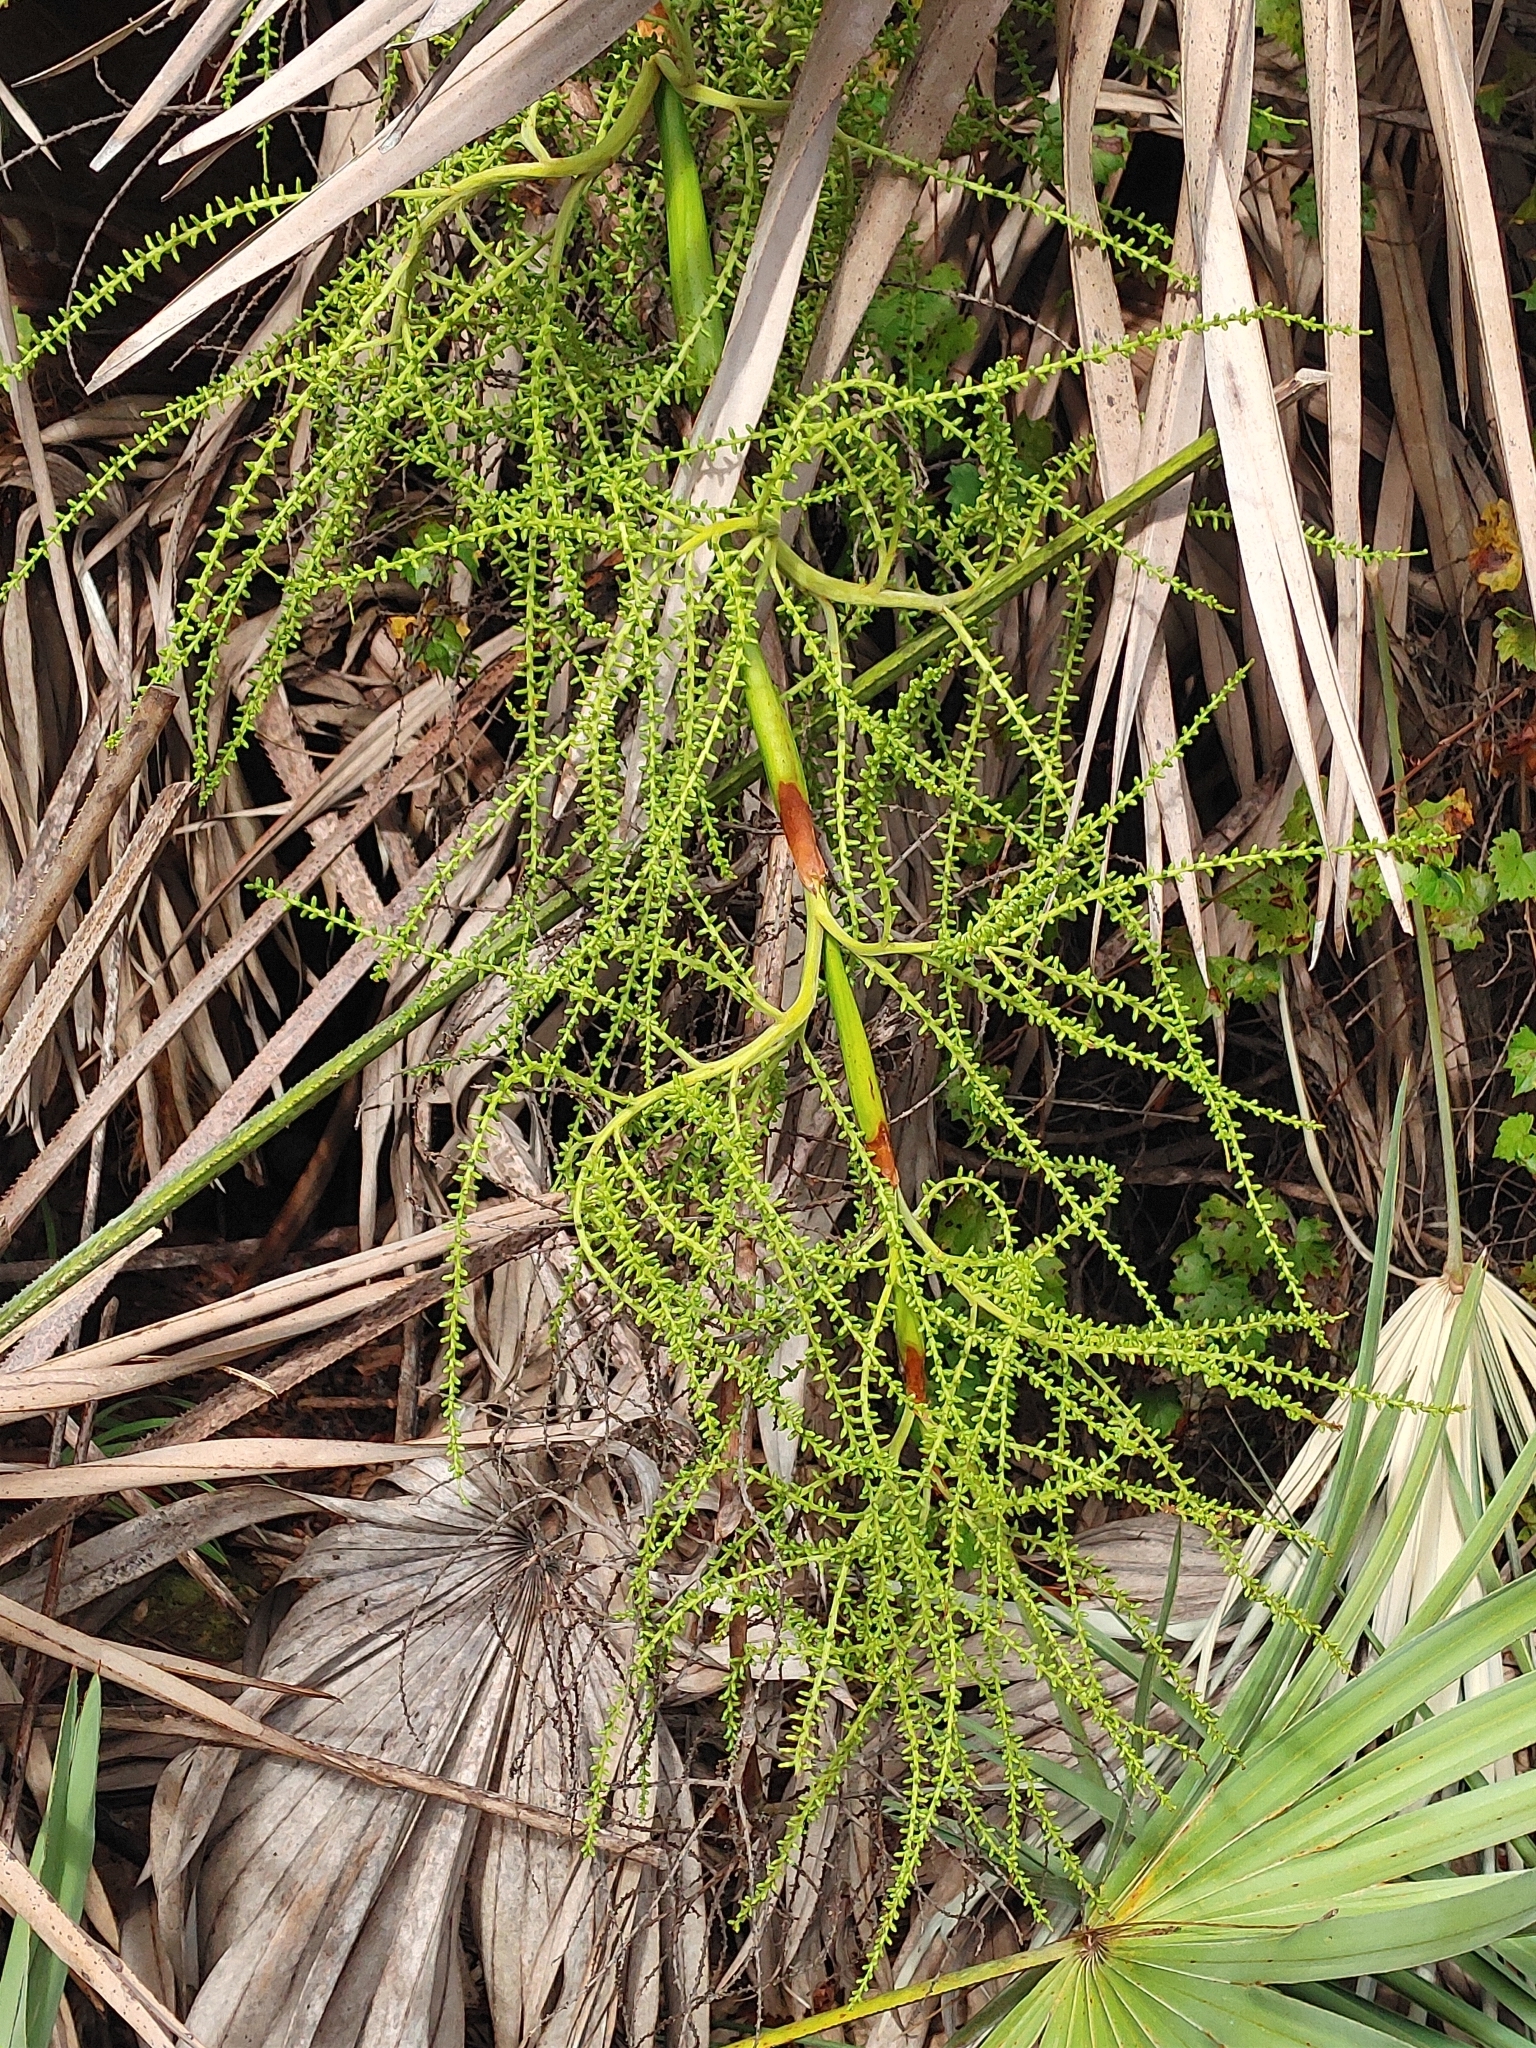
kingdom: Plantae
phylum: Tracheophyta
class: Liliopsida
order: Arecales
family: Arecaceae
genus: Serenoa
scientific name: Serenoa repens
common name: Saw-palmetto
